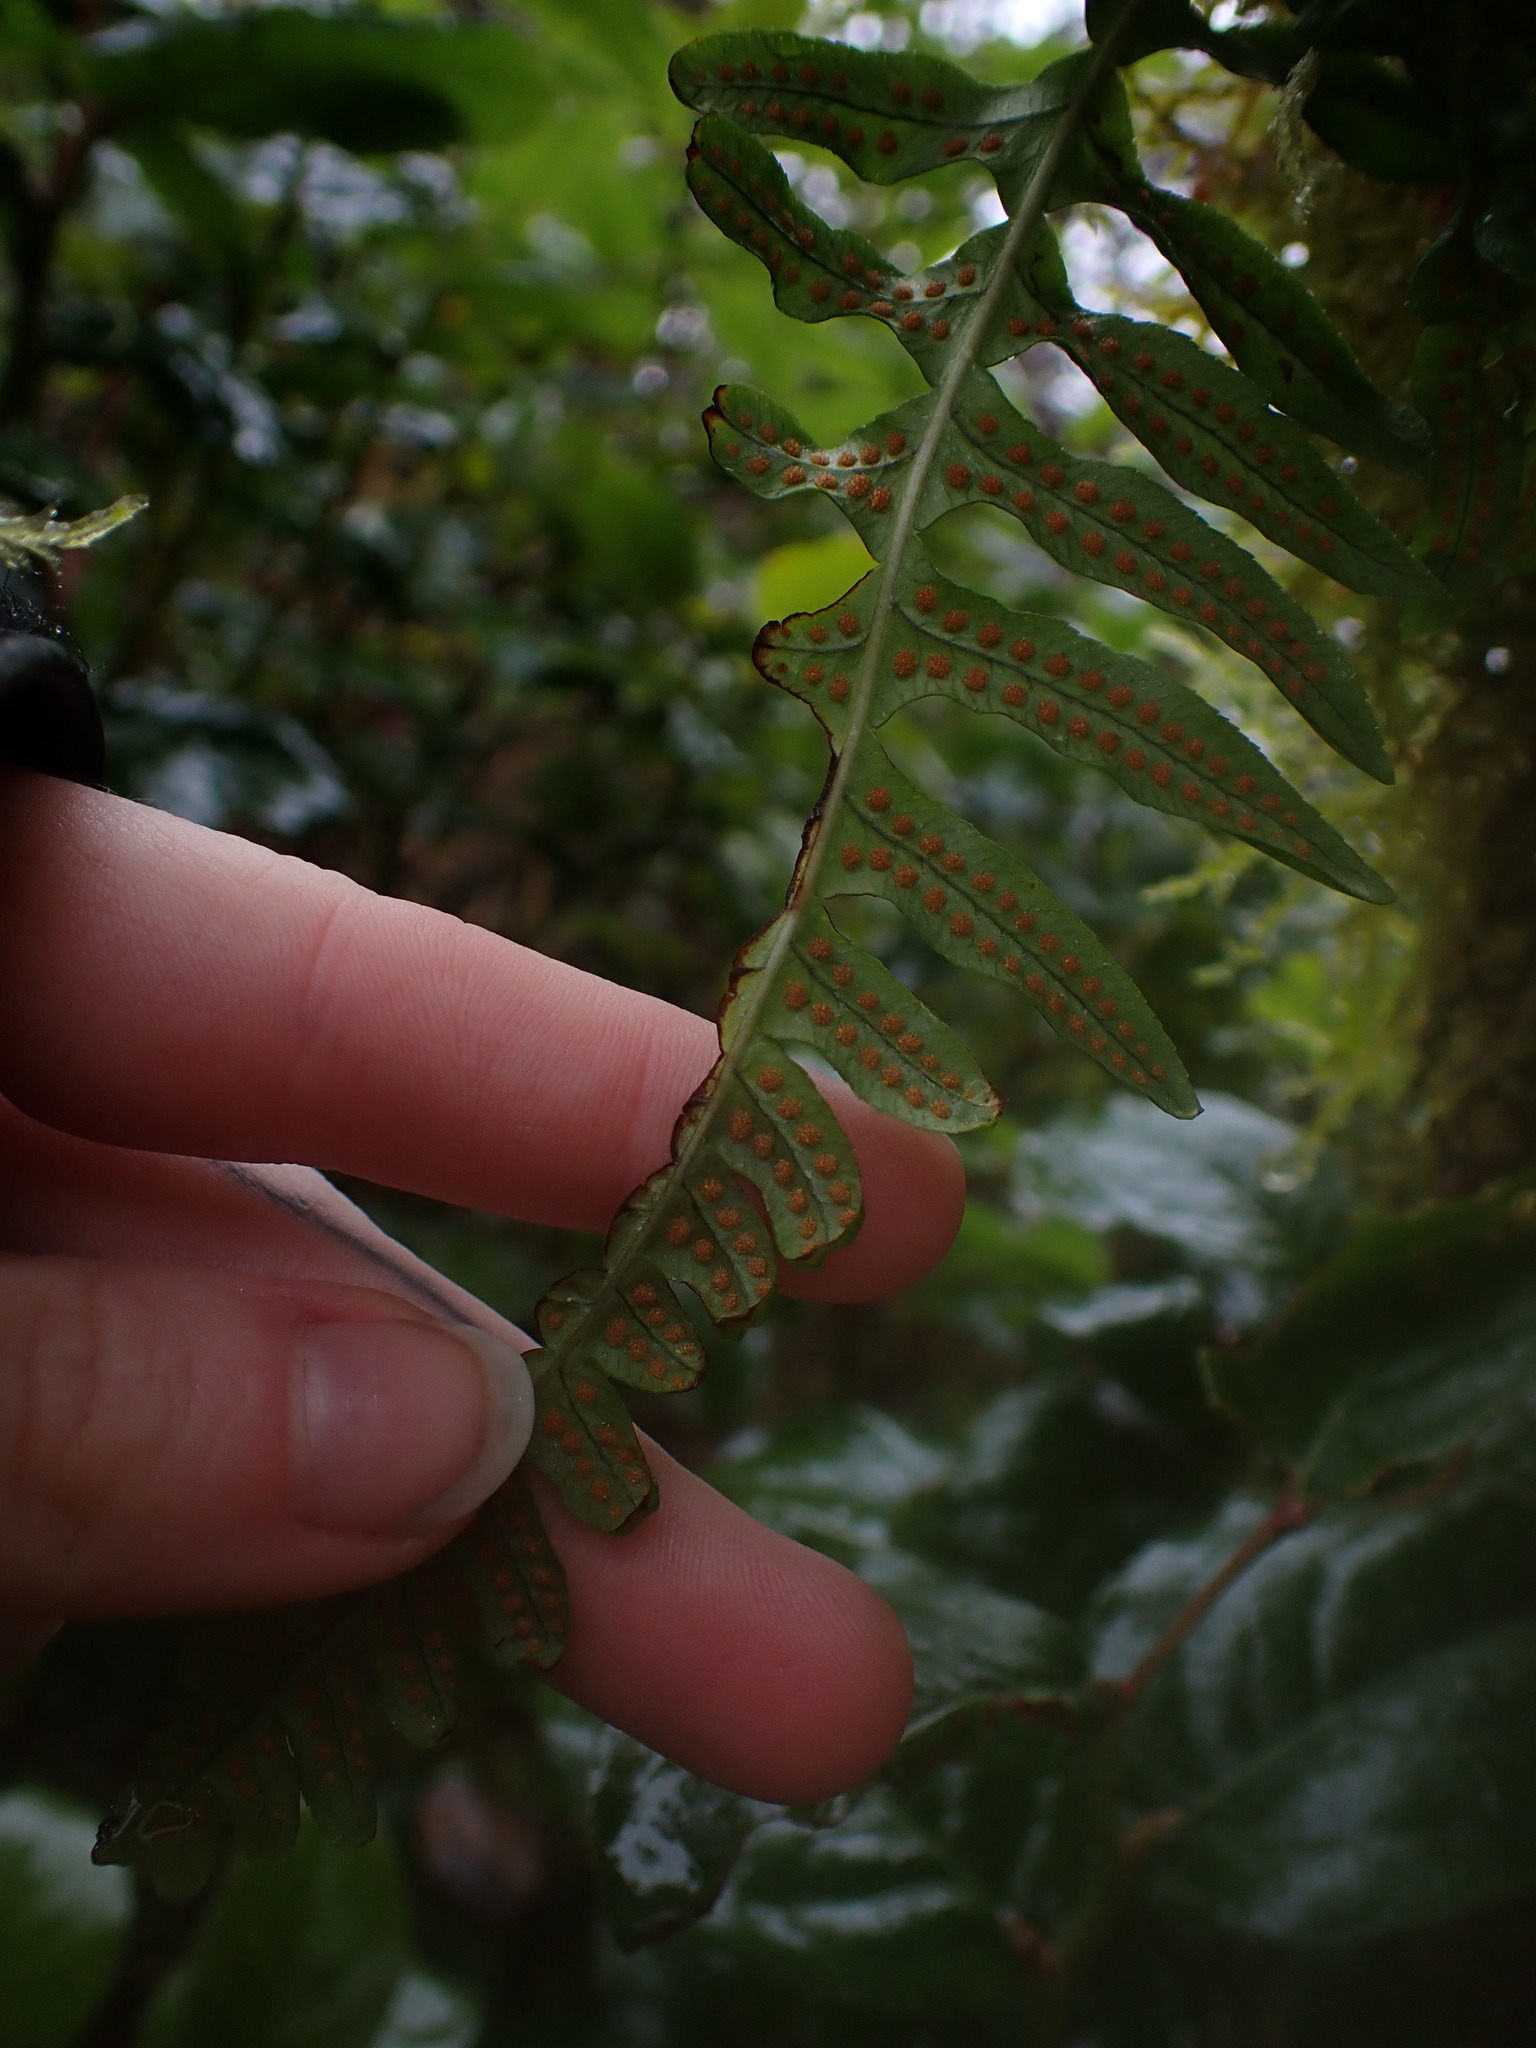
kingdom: Plantae
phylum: Tracheophyta
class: Polypodiopsida
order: Polypodiales
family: Polypodiaceae
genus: Polypodium
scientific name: Polypodium glycyrrhiza
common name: Licorice fern
